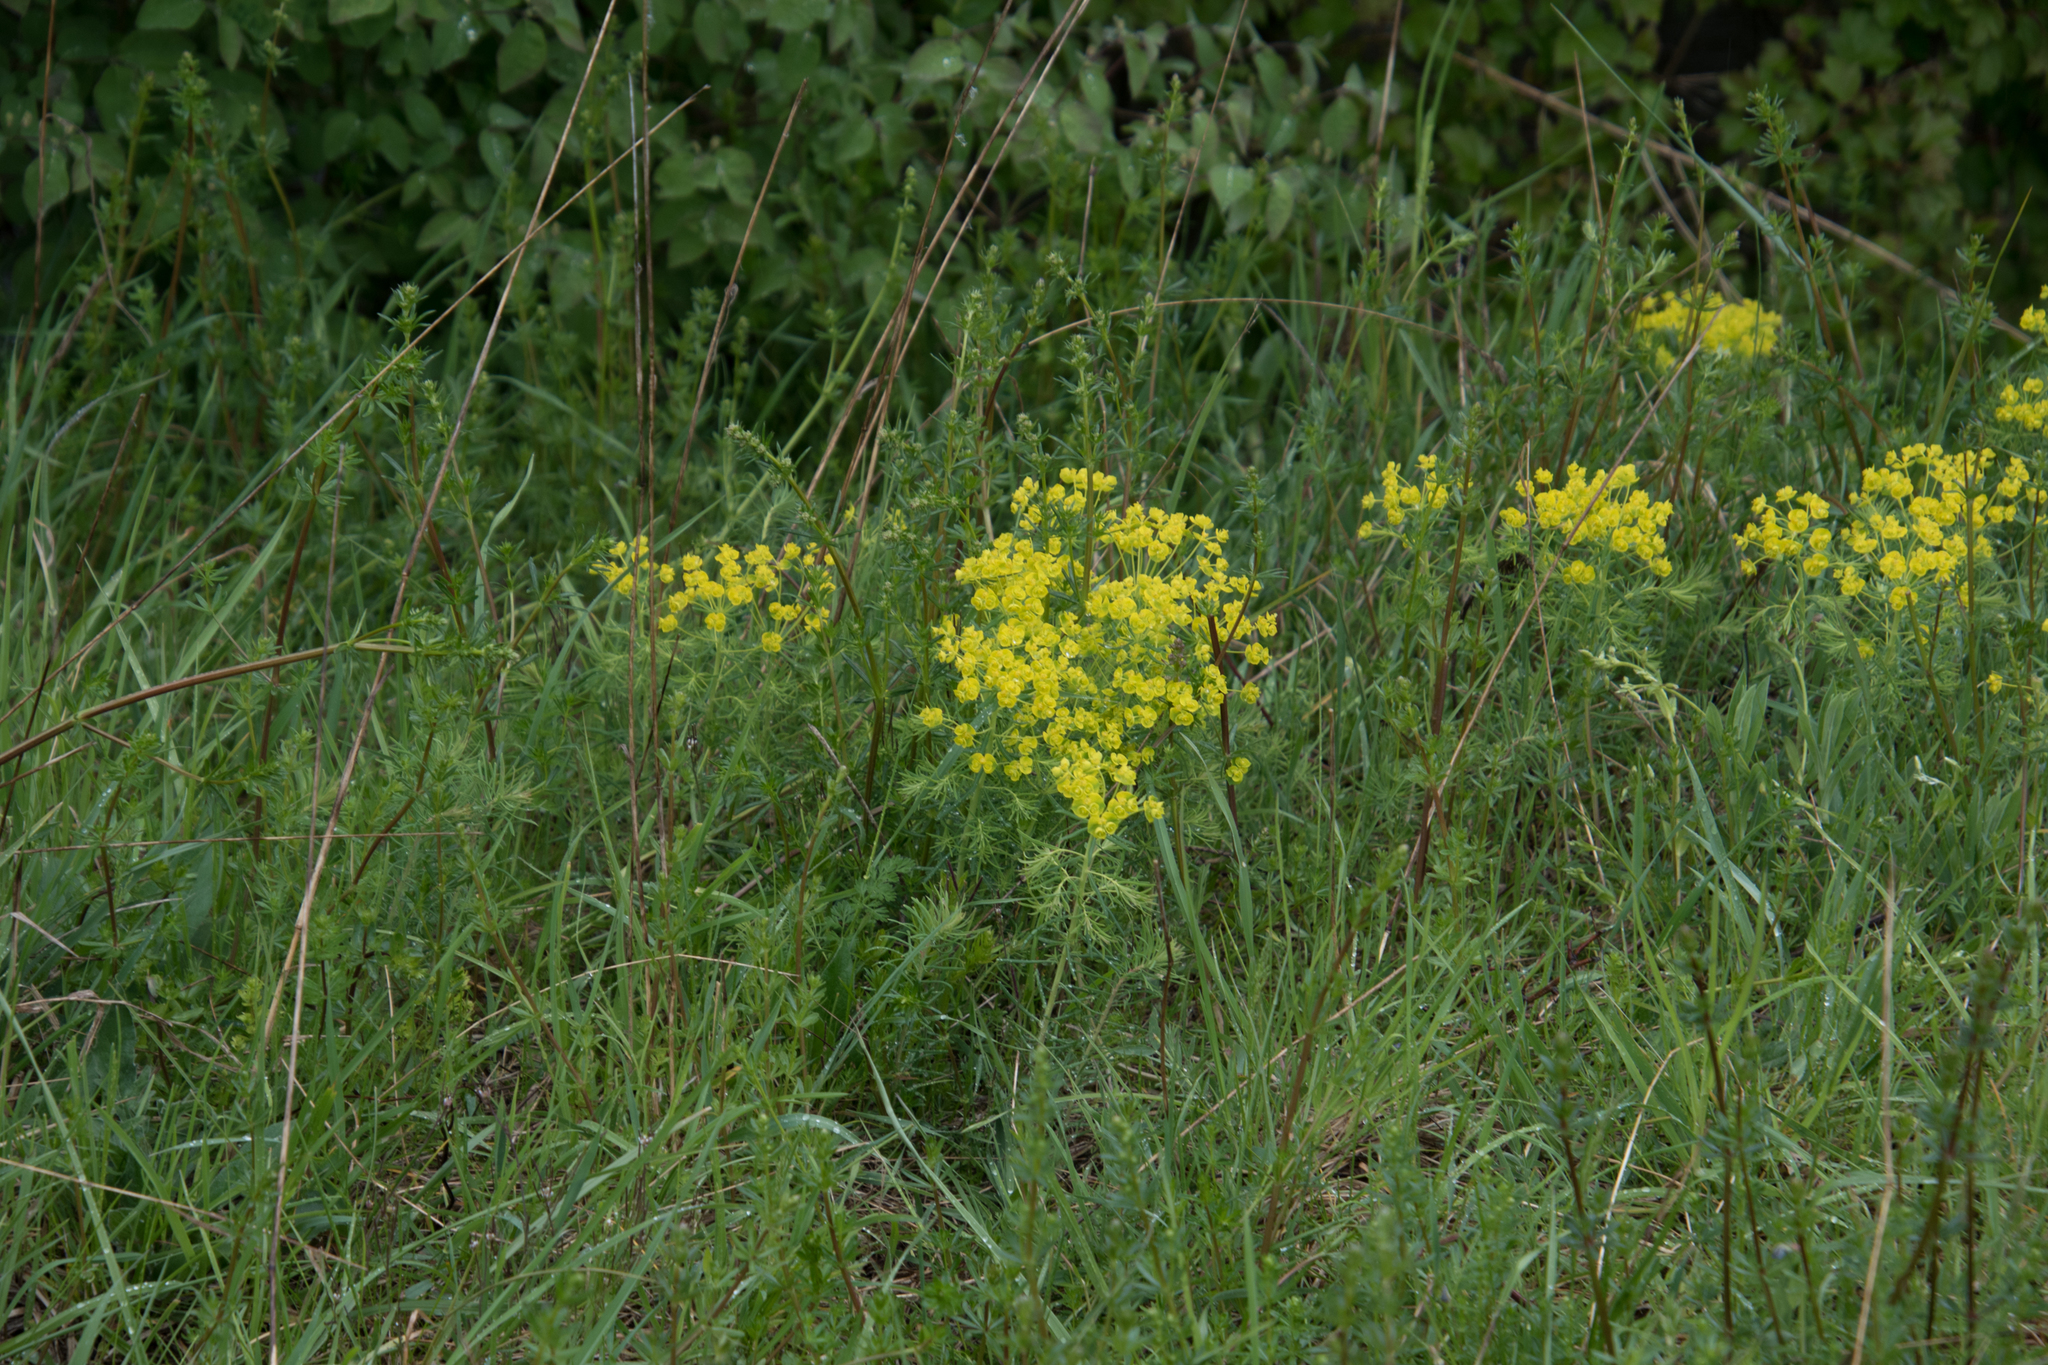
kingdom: Plantae
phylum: Tracheophyta
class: Magnoliopsida
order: Malpighiales
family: Euphorbiaceae
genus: Euphorbia
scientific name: Euphorbia cyparissias
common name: Cypress spurge
